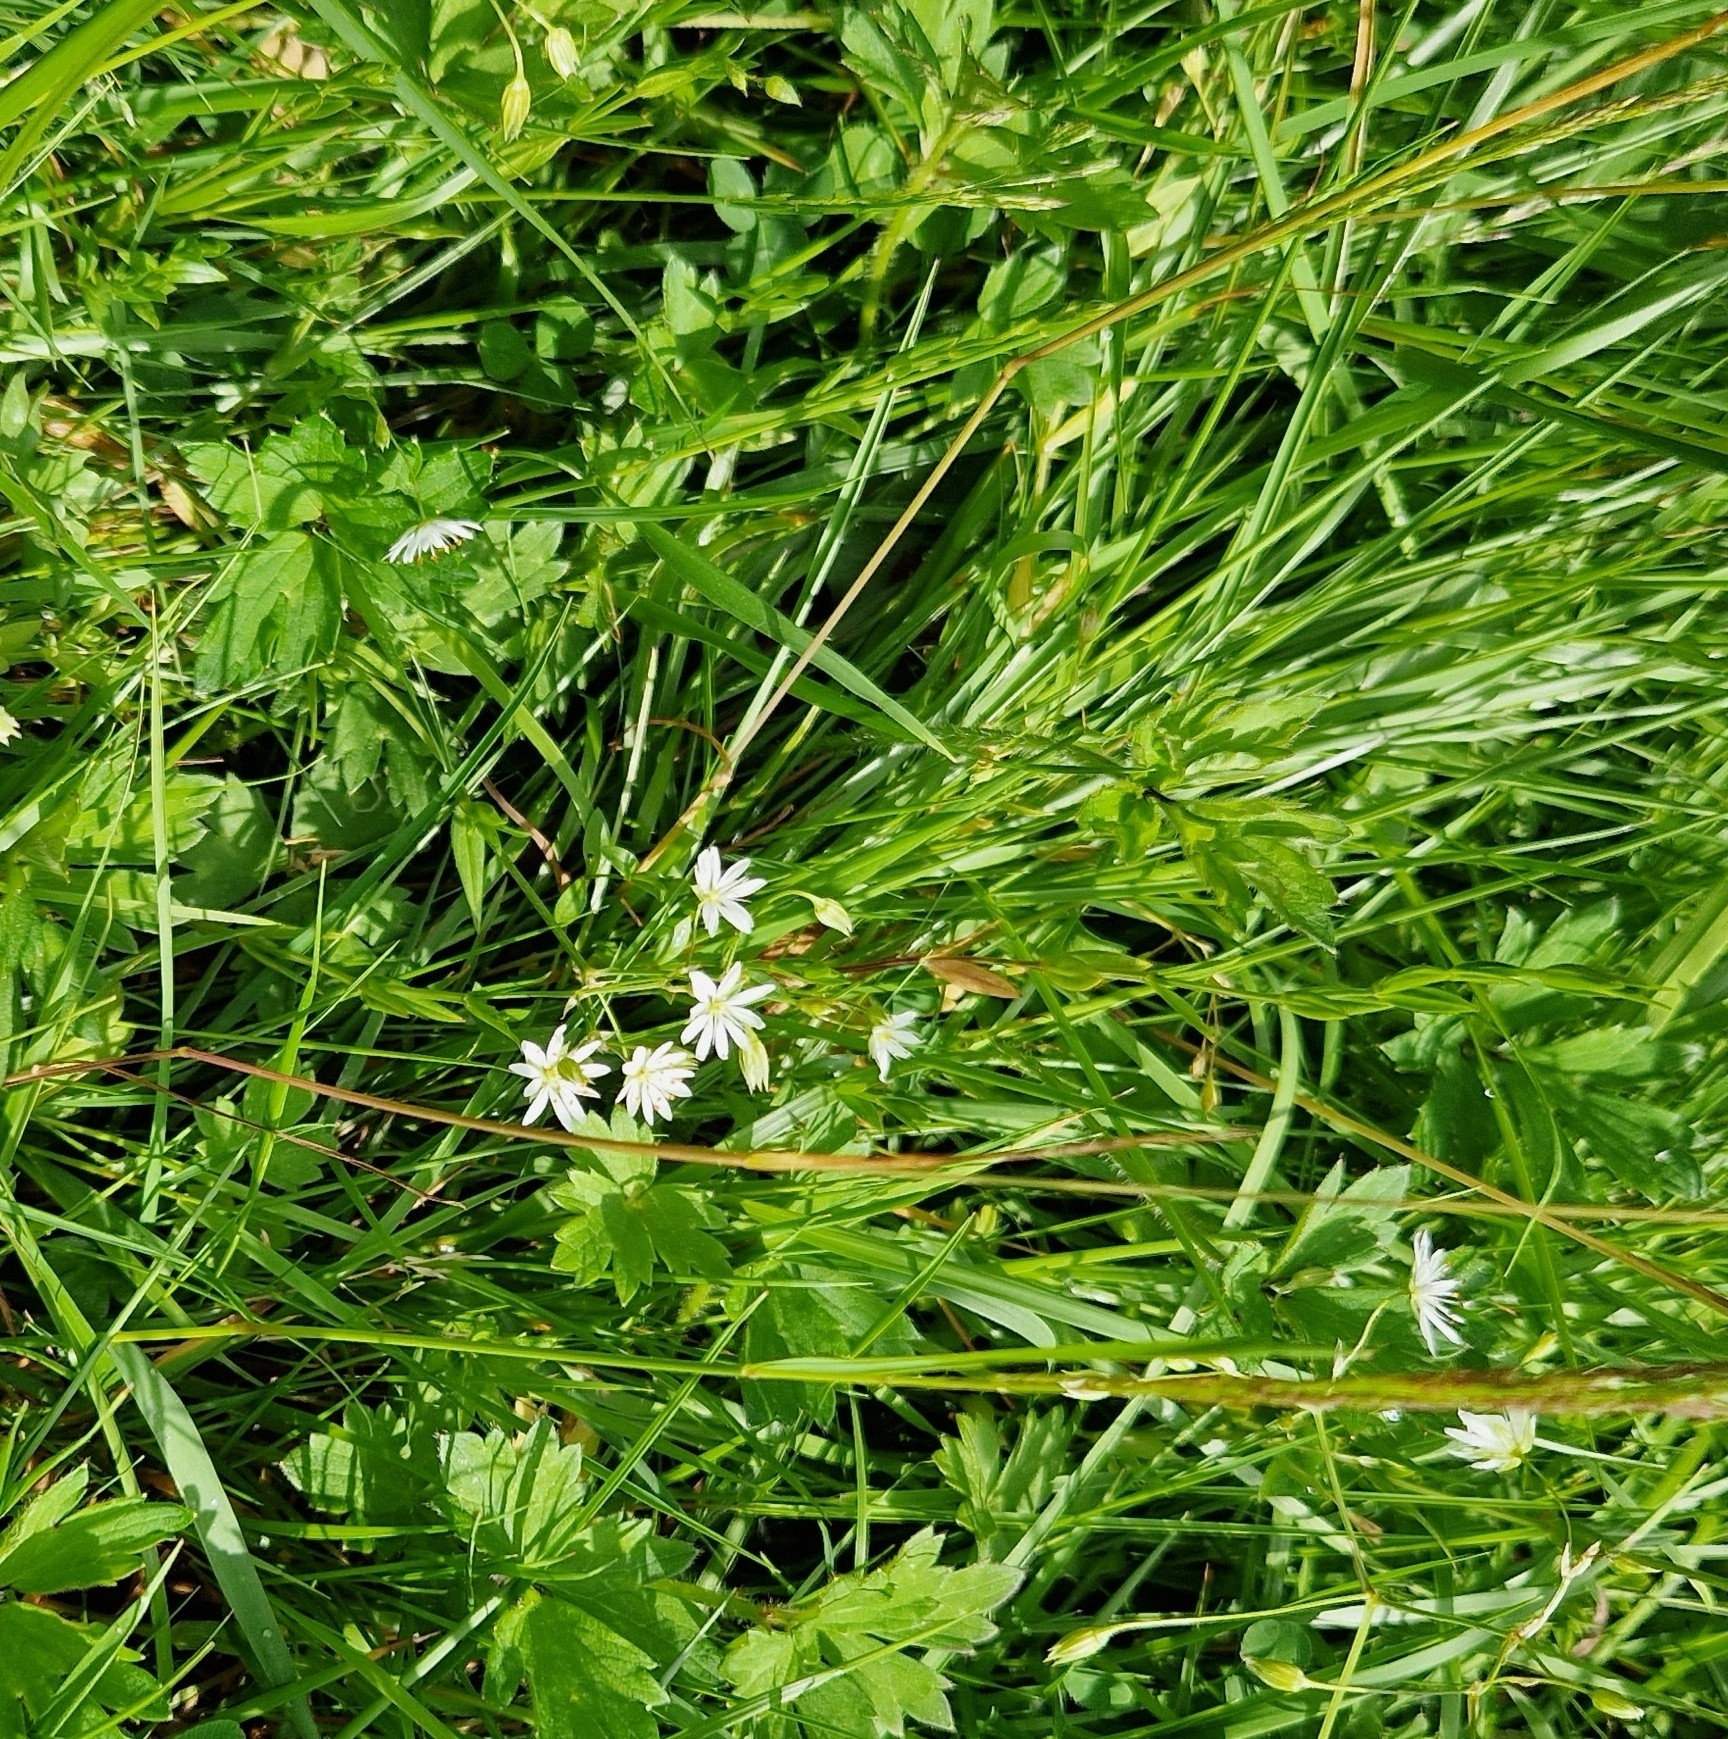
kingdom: Plantae
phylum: Tracheophyta
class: Magnoliopsida
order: Caryophyllales
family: Caryophyllaceae
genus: Stellaria
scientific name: Stellaria graminea
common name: Grass-like starwort
